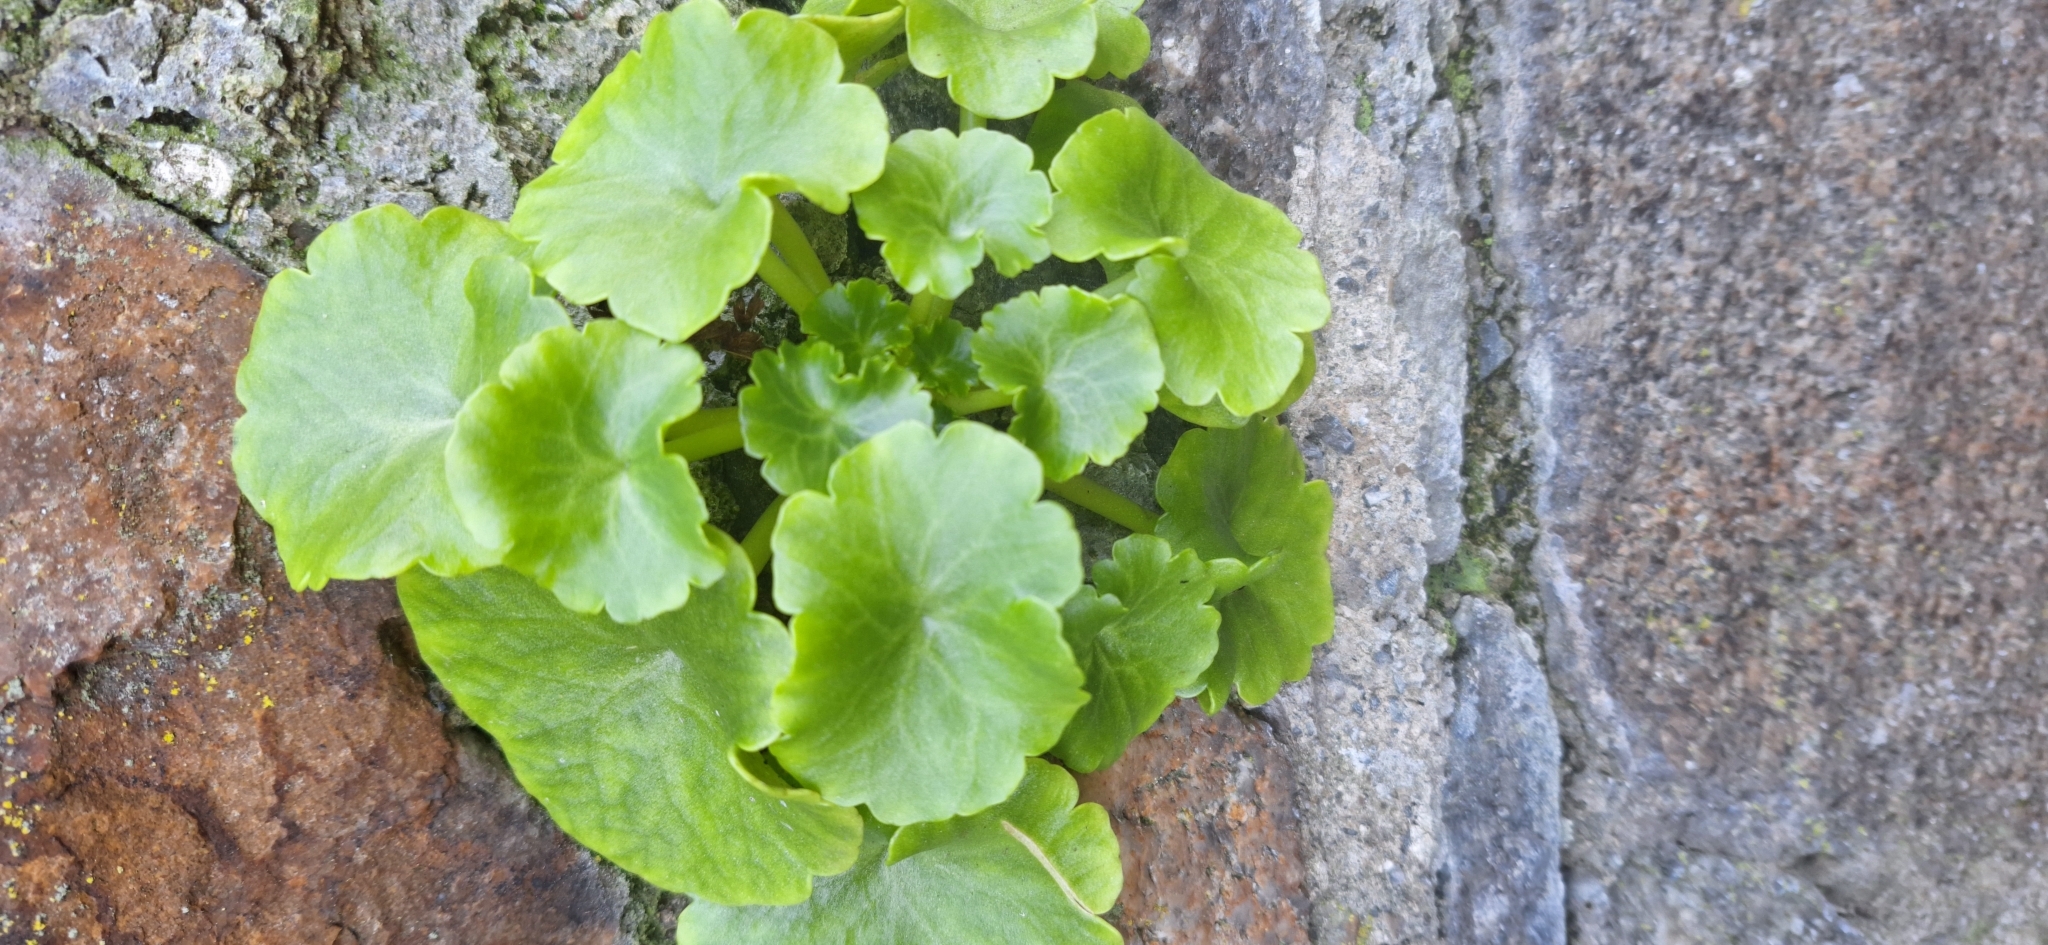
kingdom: Plantae
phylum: Tracheophyta
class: Magnoliopsida
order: Saxifragales
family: Crassulaceae
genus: Umbilicus
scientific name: Umbilicus rupestris
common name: Navelwort
